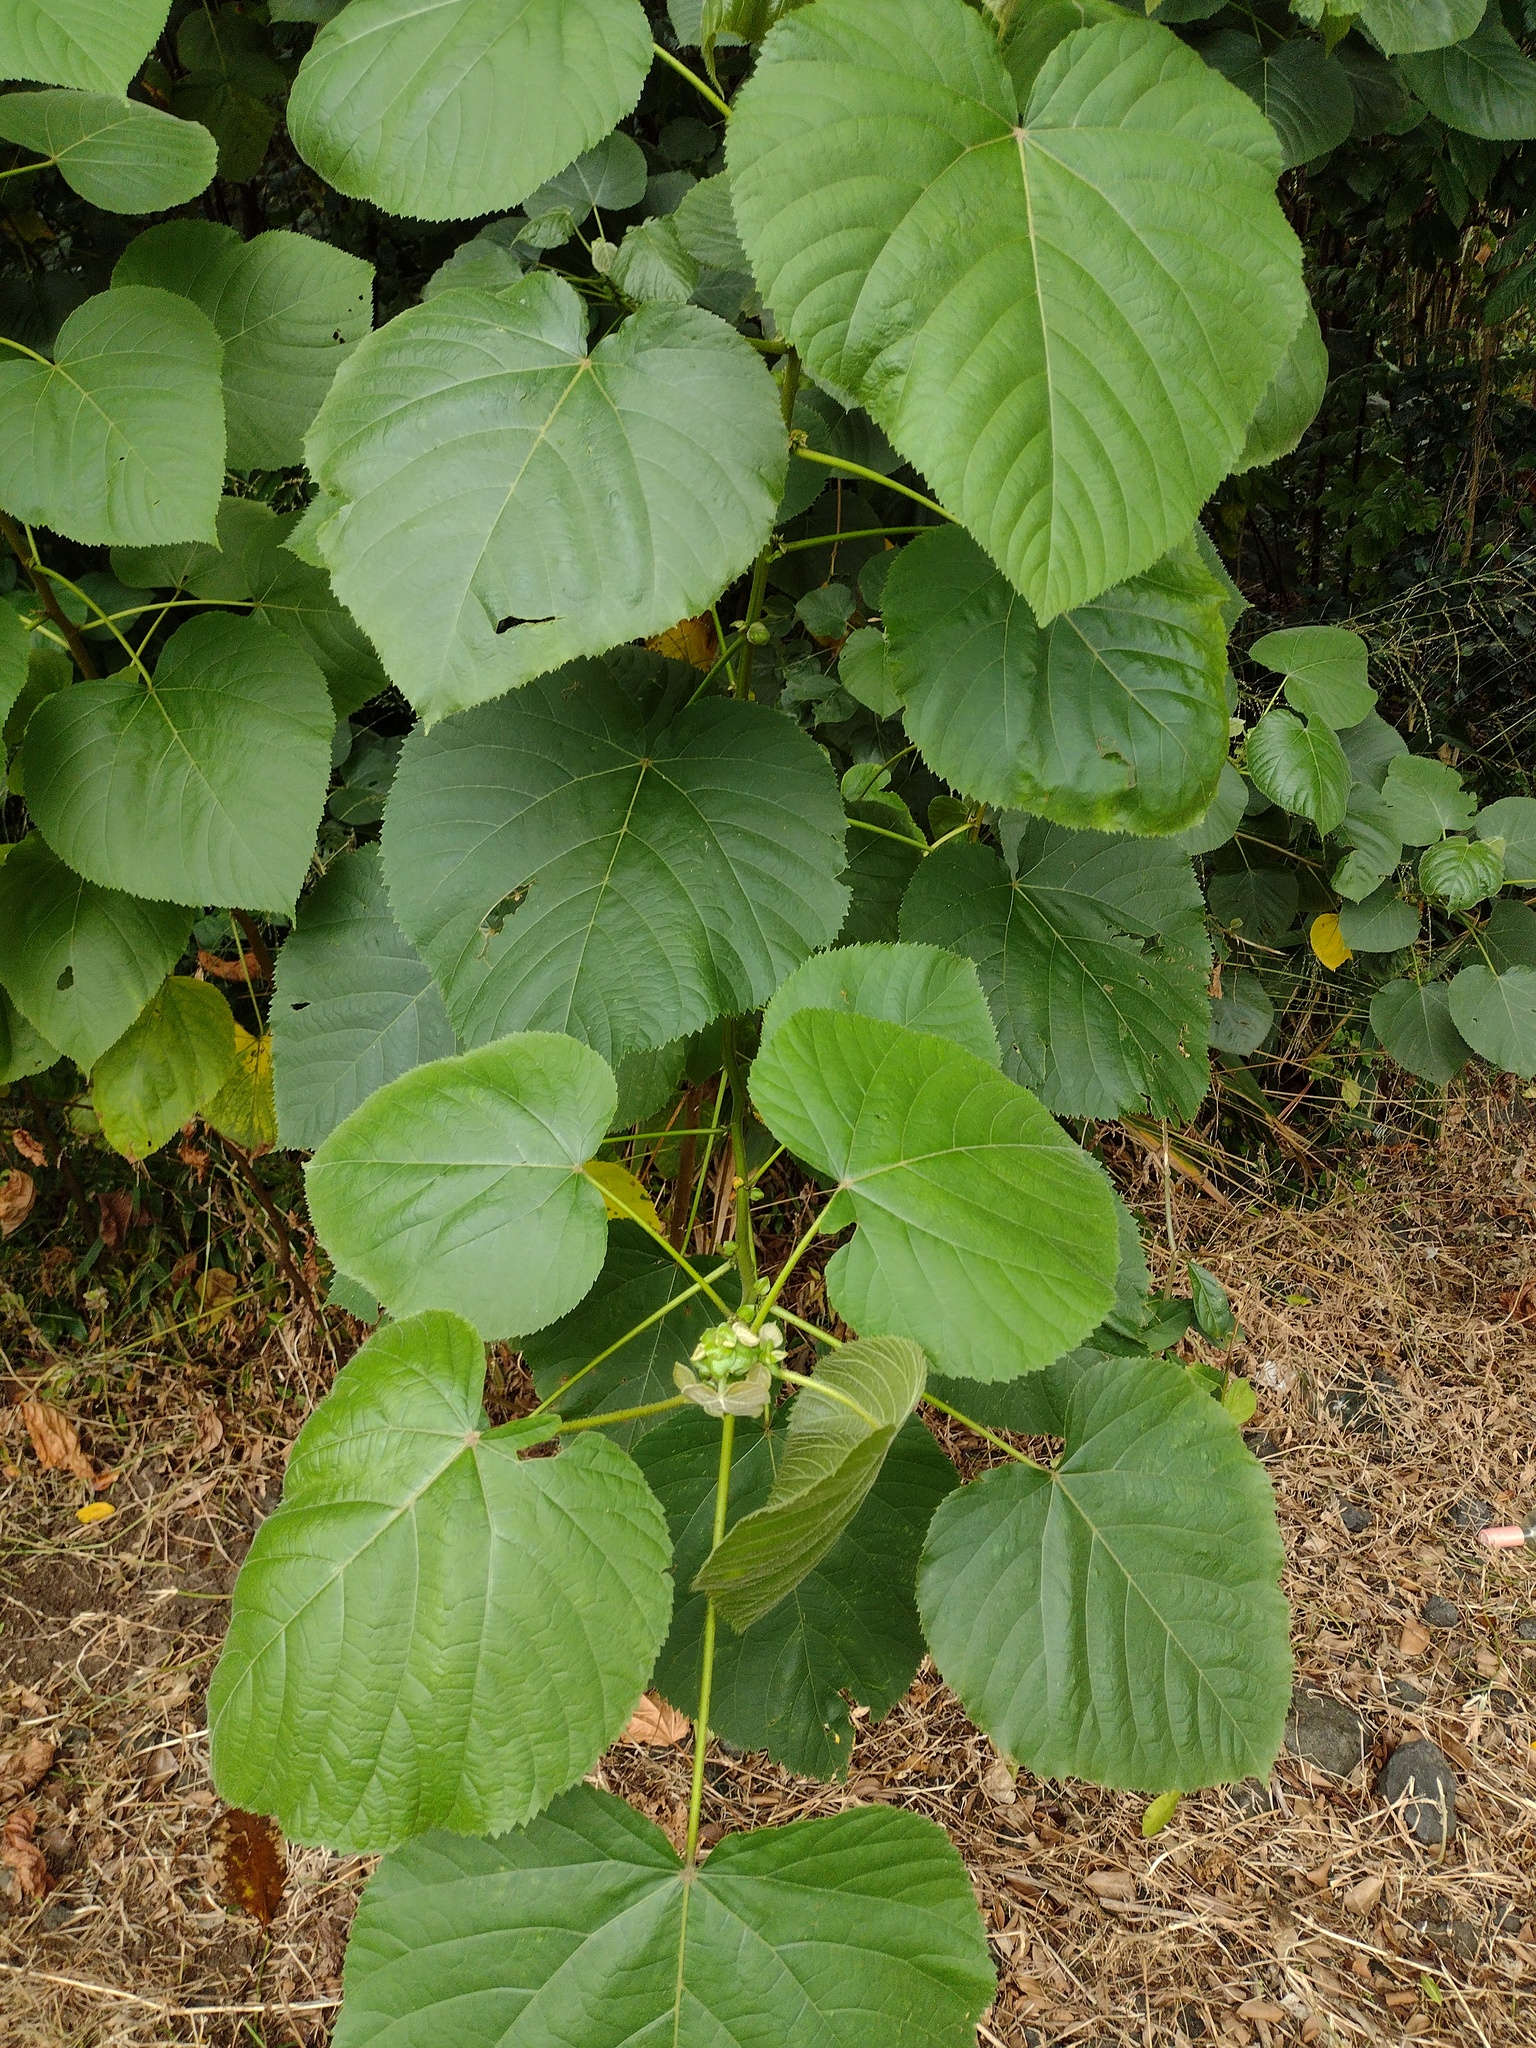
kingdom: Plantae
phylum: Tracheophyta
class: Magnoliopsida
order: Malvales
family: Malvaceae
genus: Melochia
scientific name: Melochia umbellata
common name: Gunpowder tree
